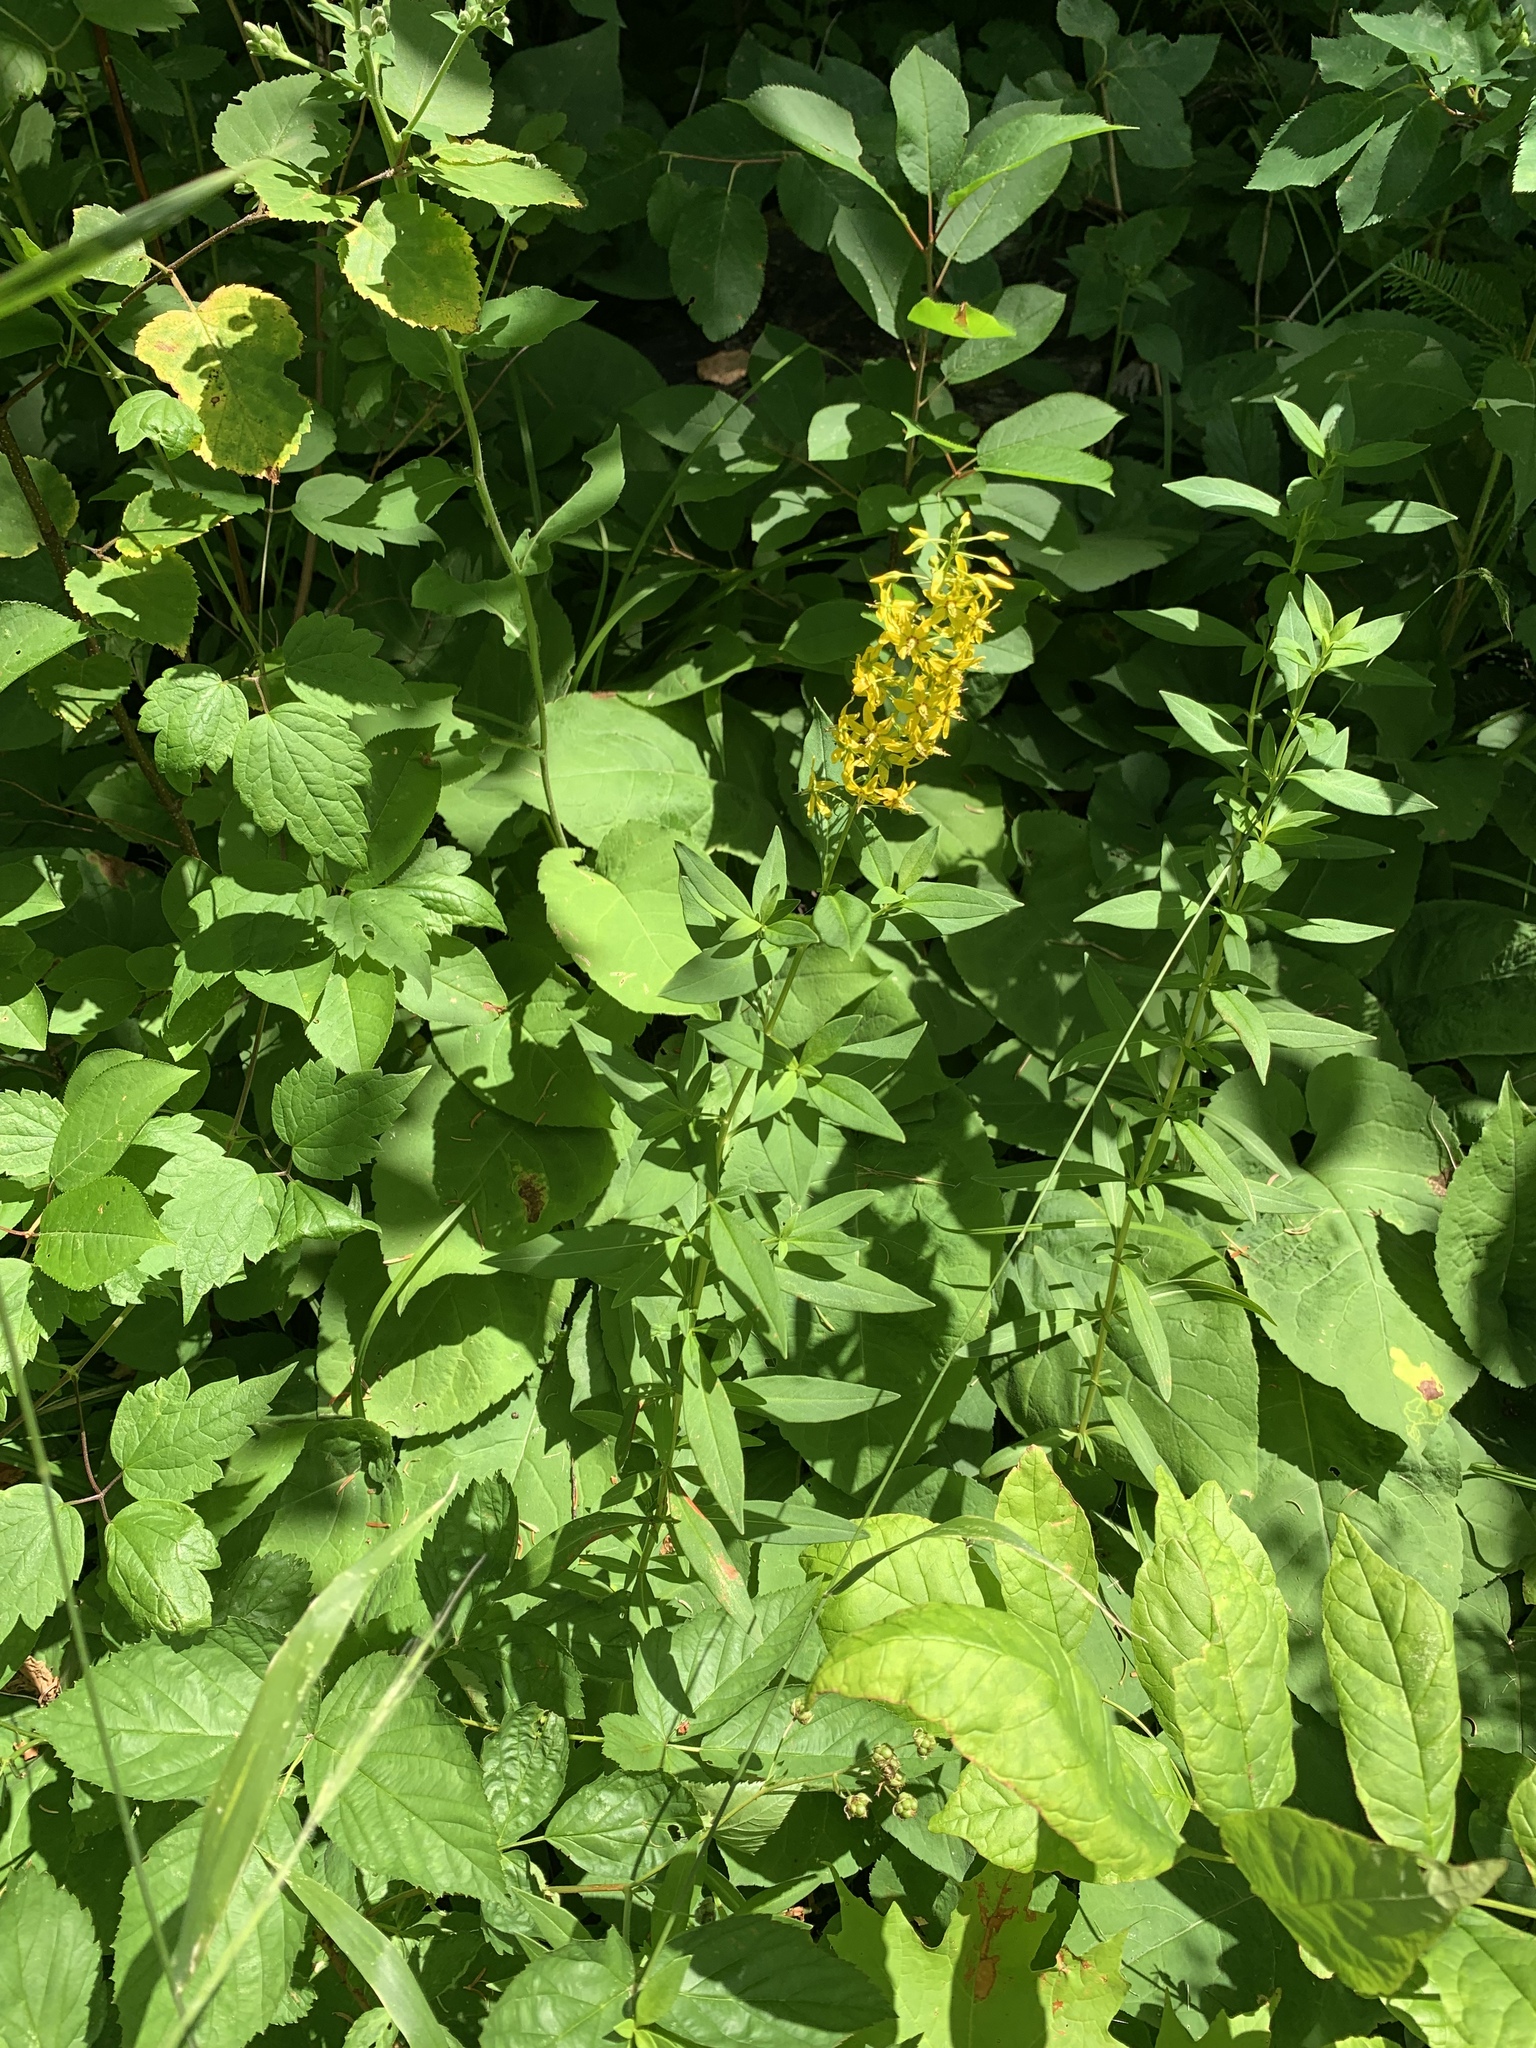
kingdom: Plantae
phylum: Tracheophyta
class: Magnoliopsida
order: Ericales
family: Primulaceae
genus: Lysimachia
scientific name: Lysimachia terrestris
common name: Lake loosestrife
